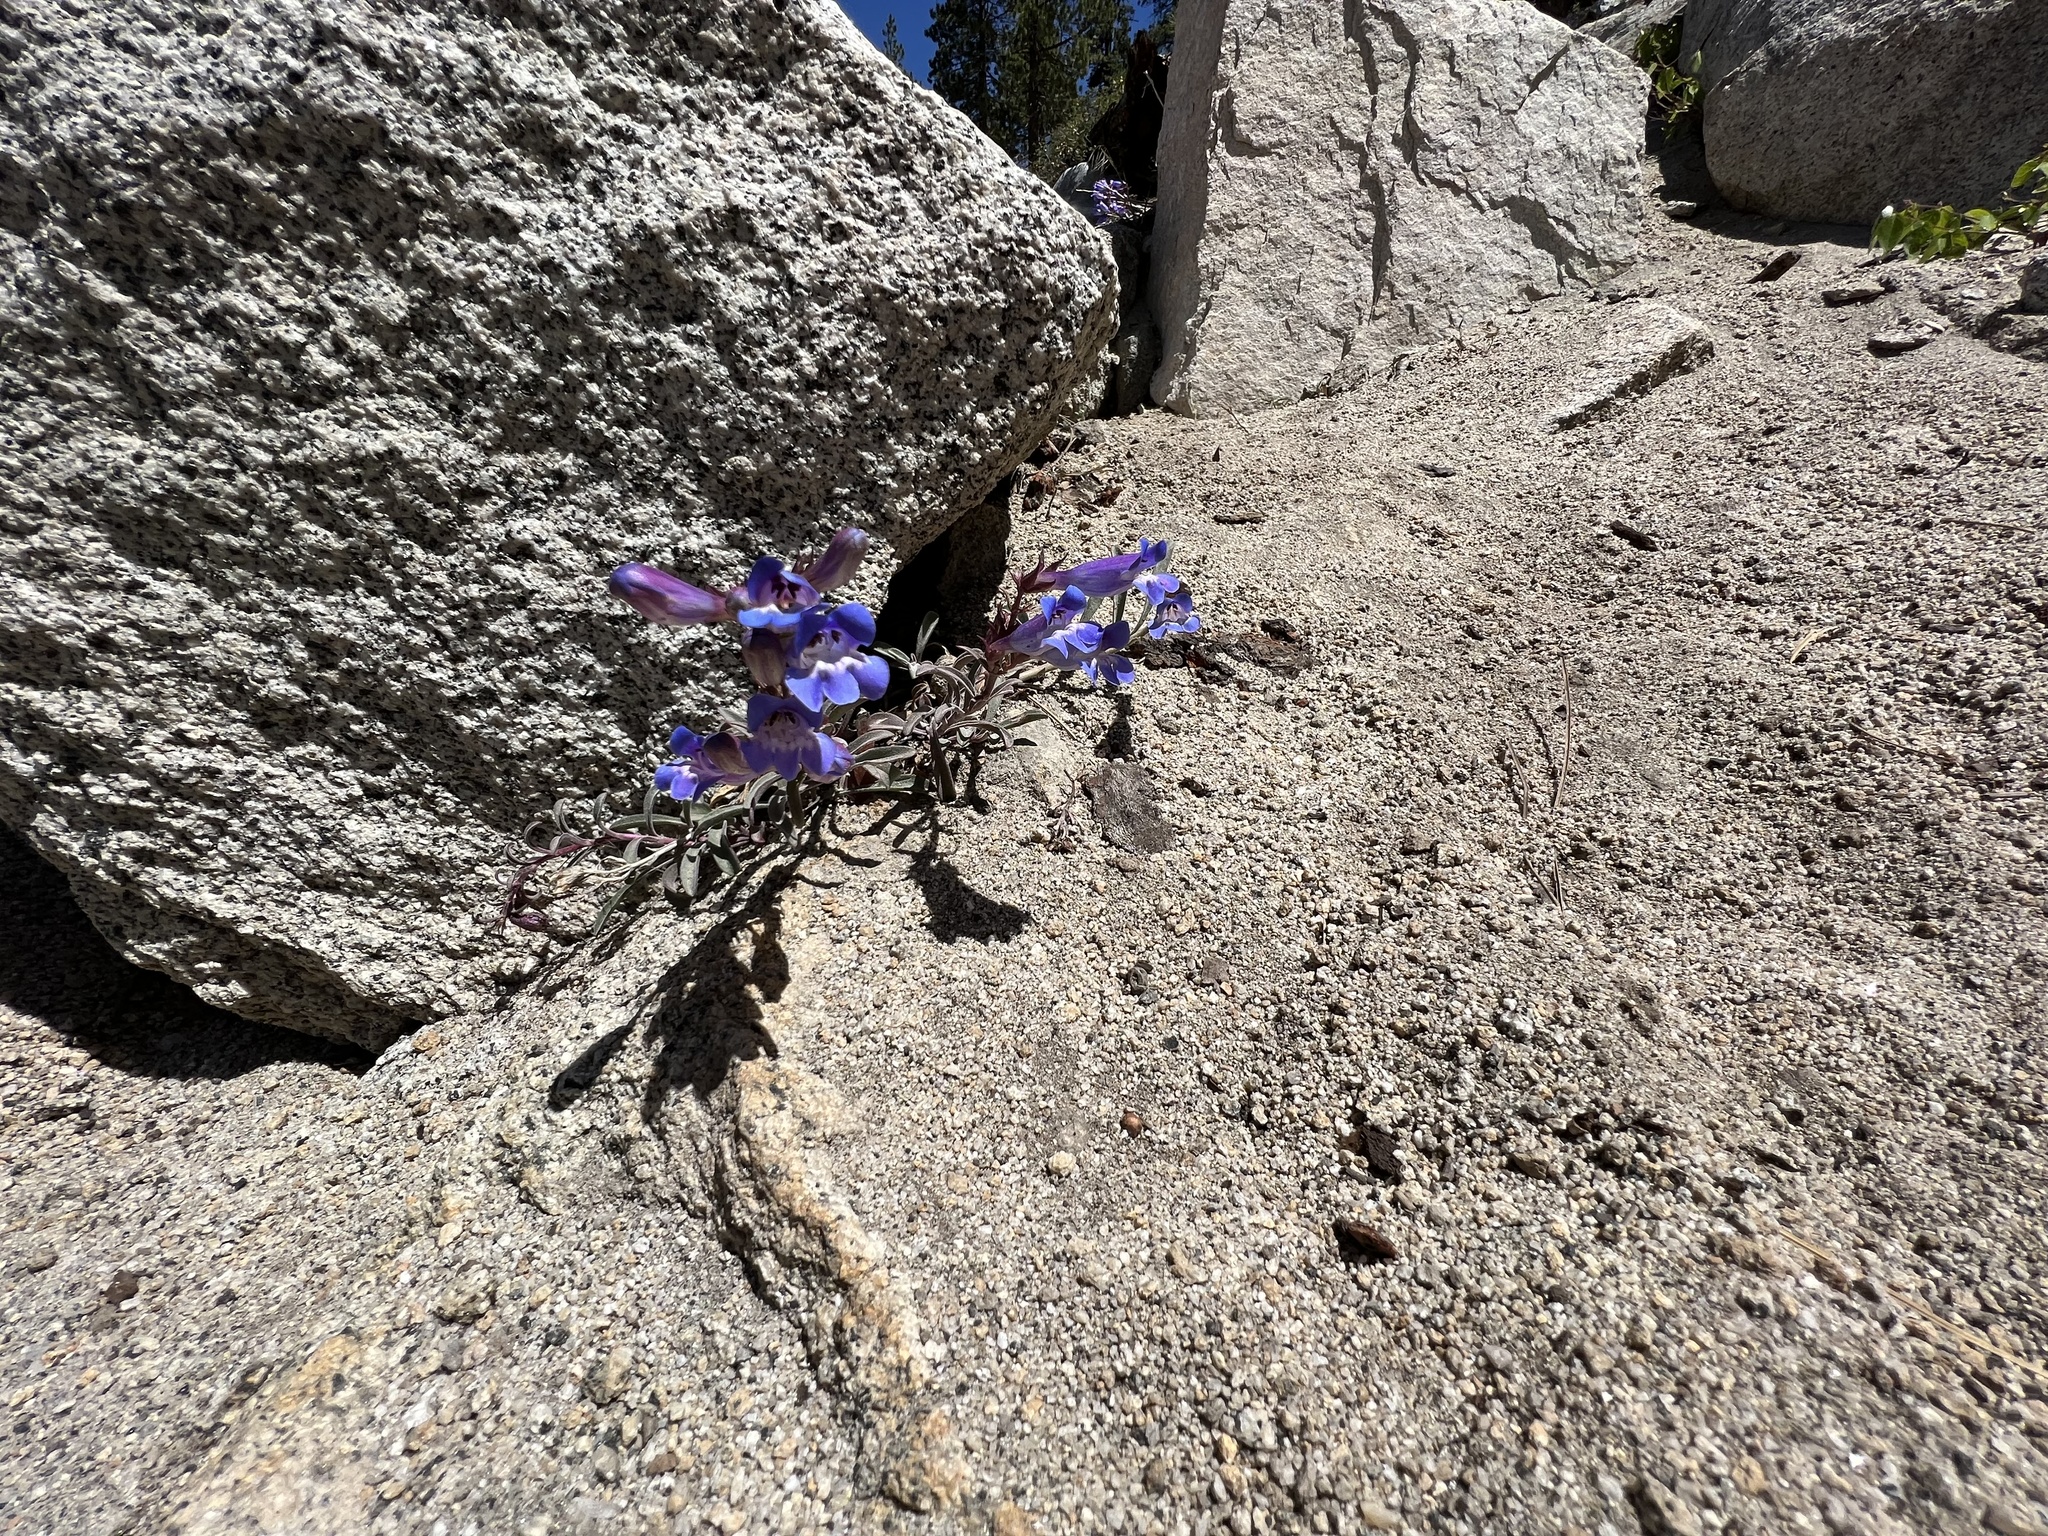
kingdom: Plantae
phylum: Tracheophyta
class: Magnoliopsida
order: Lamiales
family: Plantaginaceae
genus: Penstemon
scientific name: Penstemon speciosus
